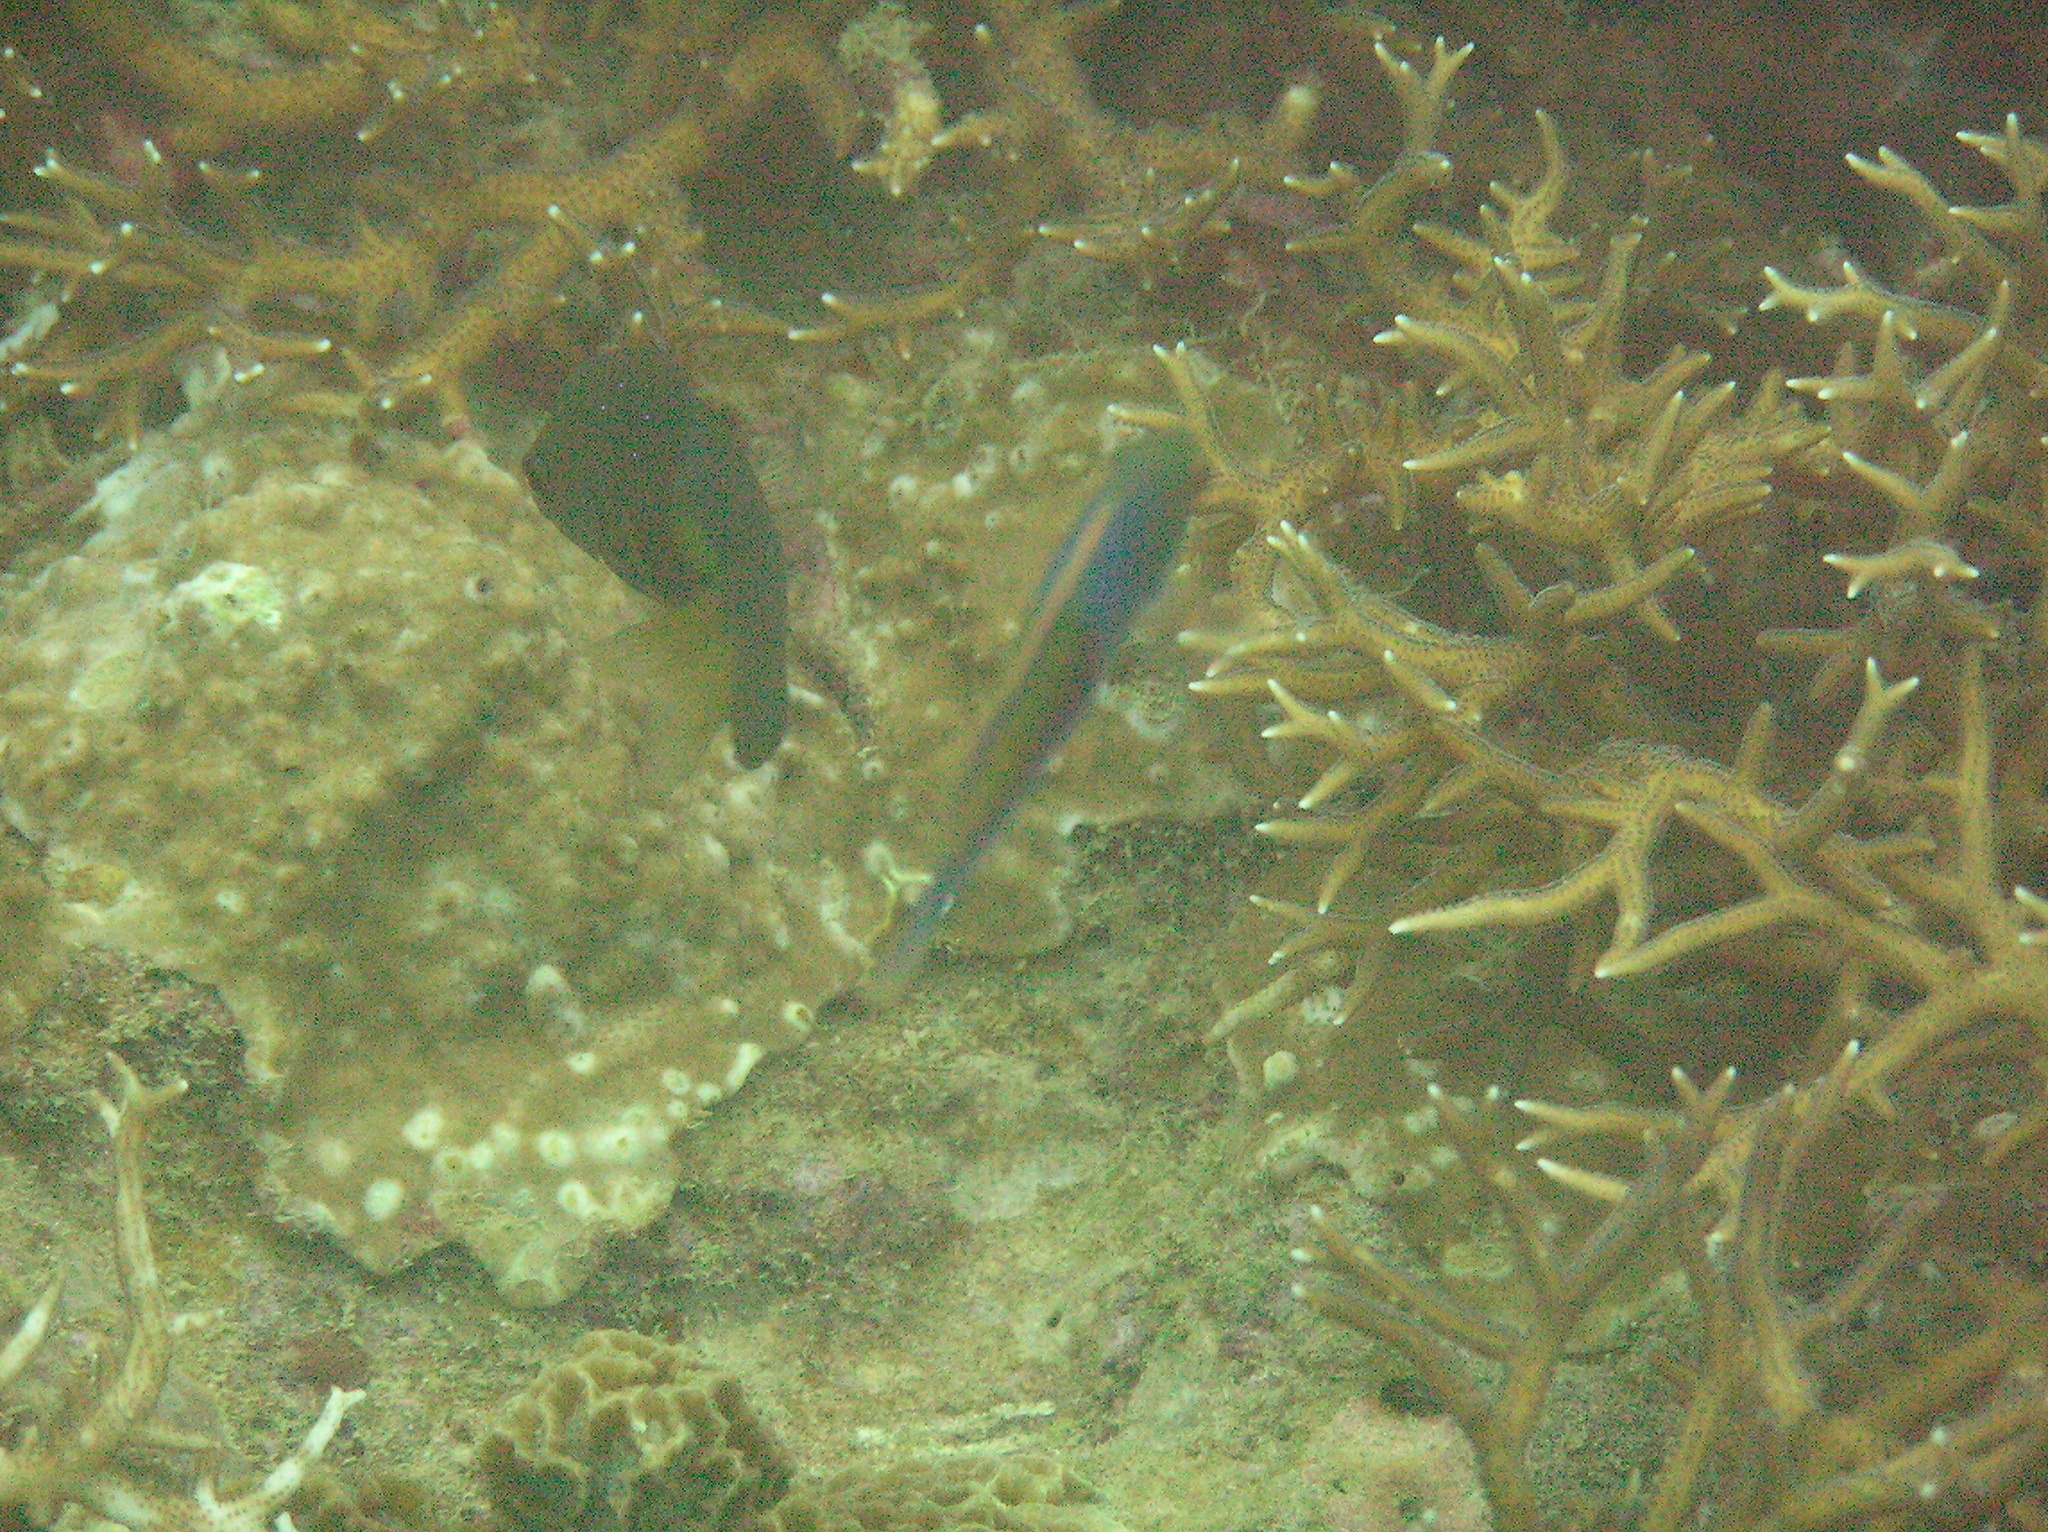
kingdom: Animalia
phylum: Chordata
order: Perciformes
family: Labridae
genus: Cirrhilabrus
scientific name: Cirrhilabrus cyanopleura
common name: Coralline wrasse
